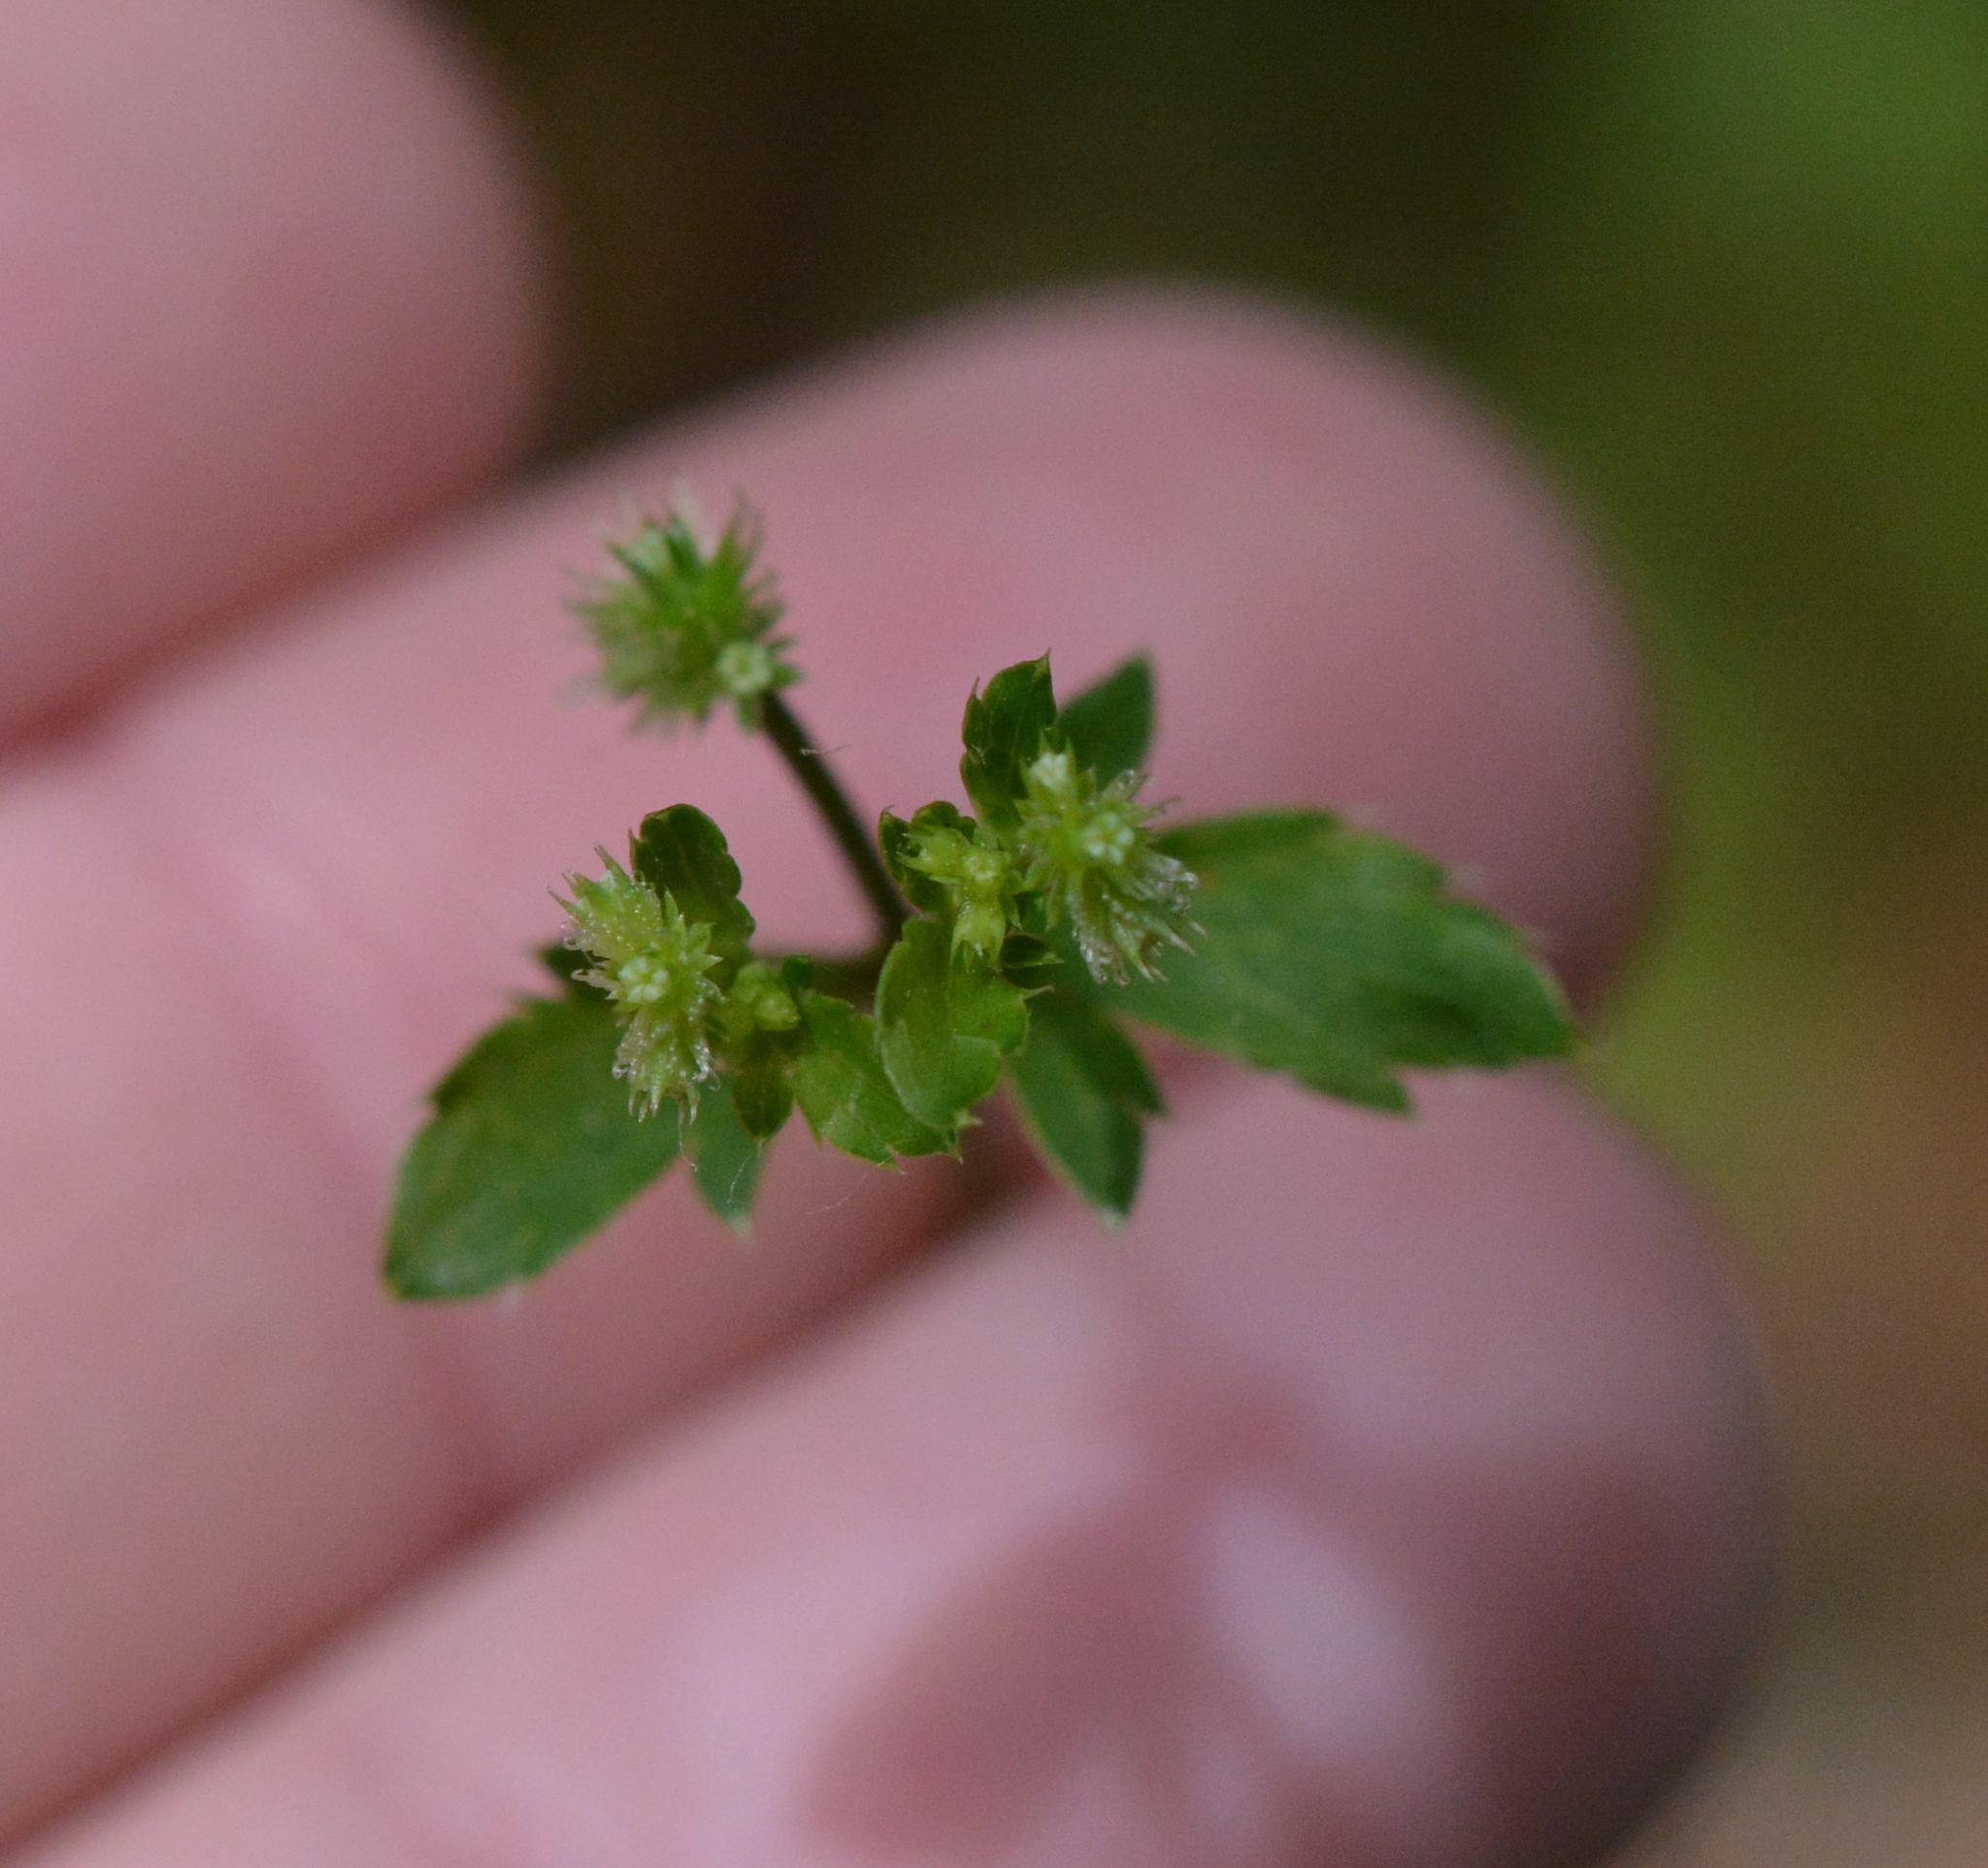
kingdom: Plantae
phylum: Tracheophyta
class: Magnoliopsida
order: Apiales
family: Apiaceae
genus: Sanicula
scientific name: Sanicula canadensis
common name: Canada sanicle
